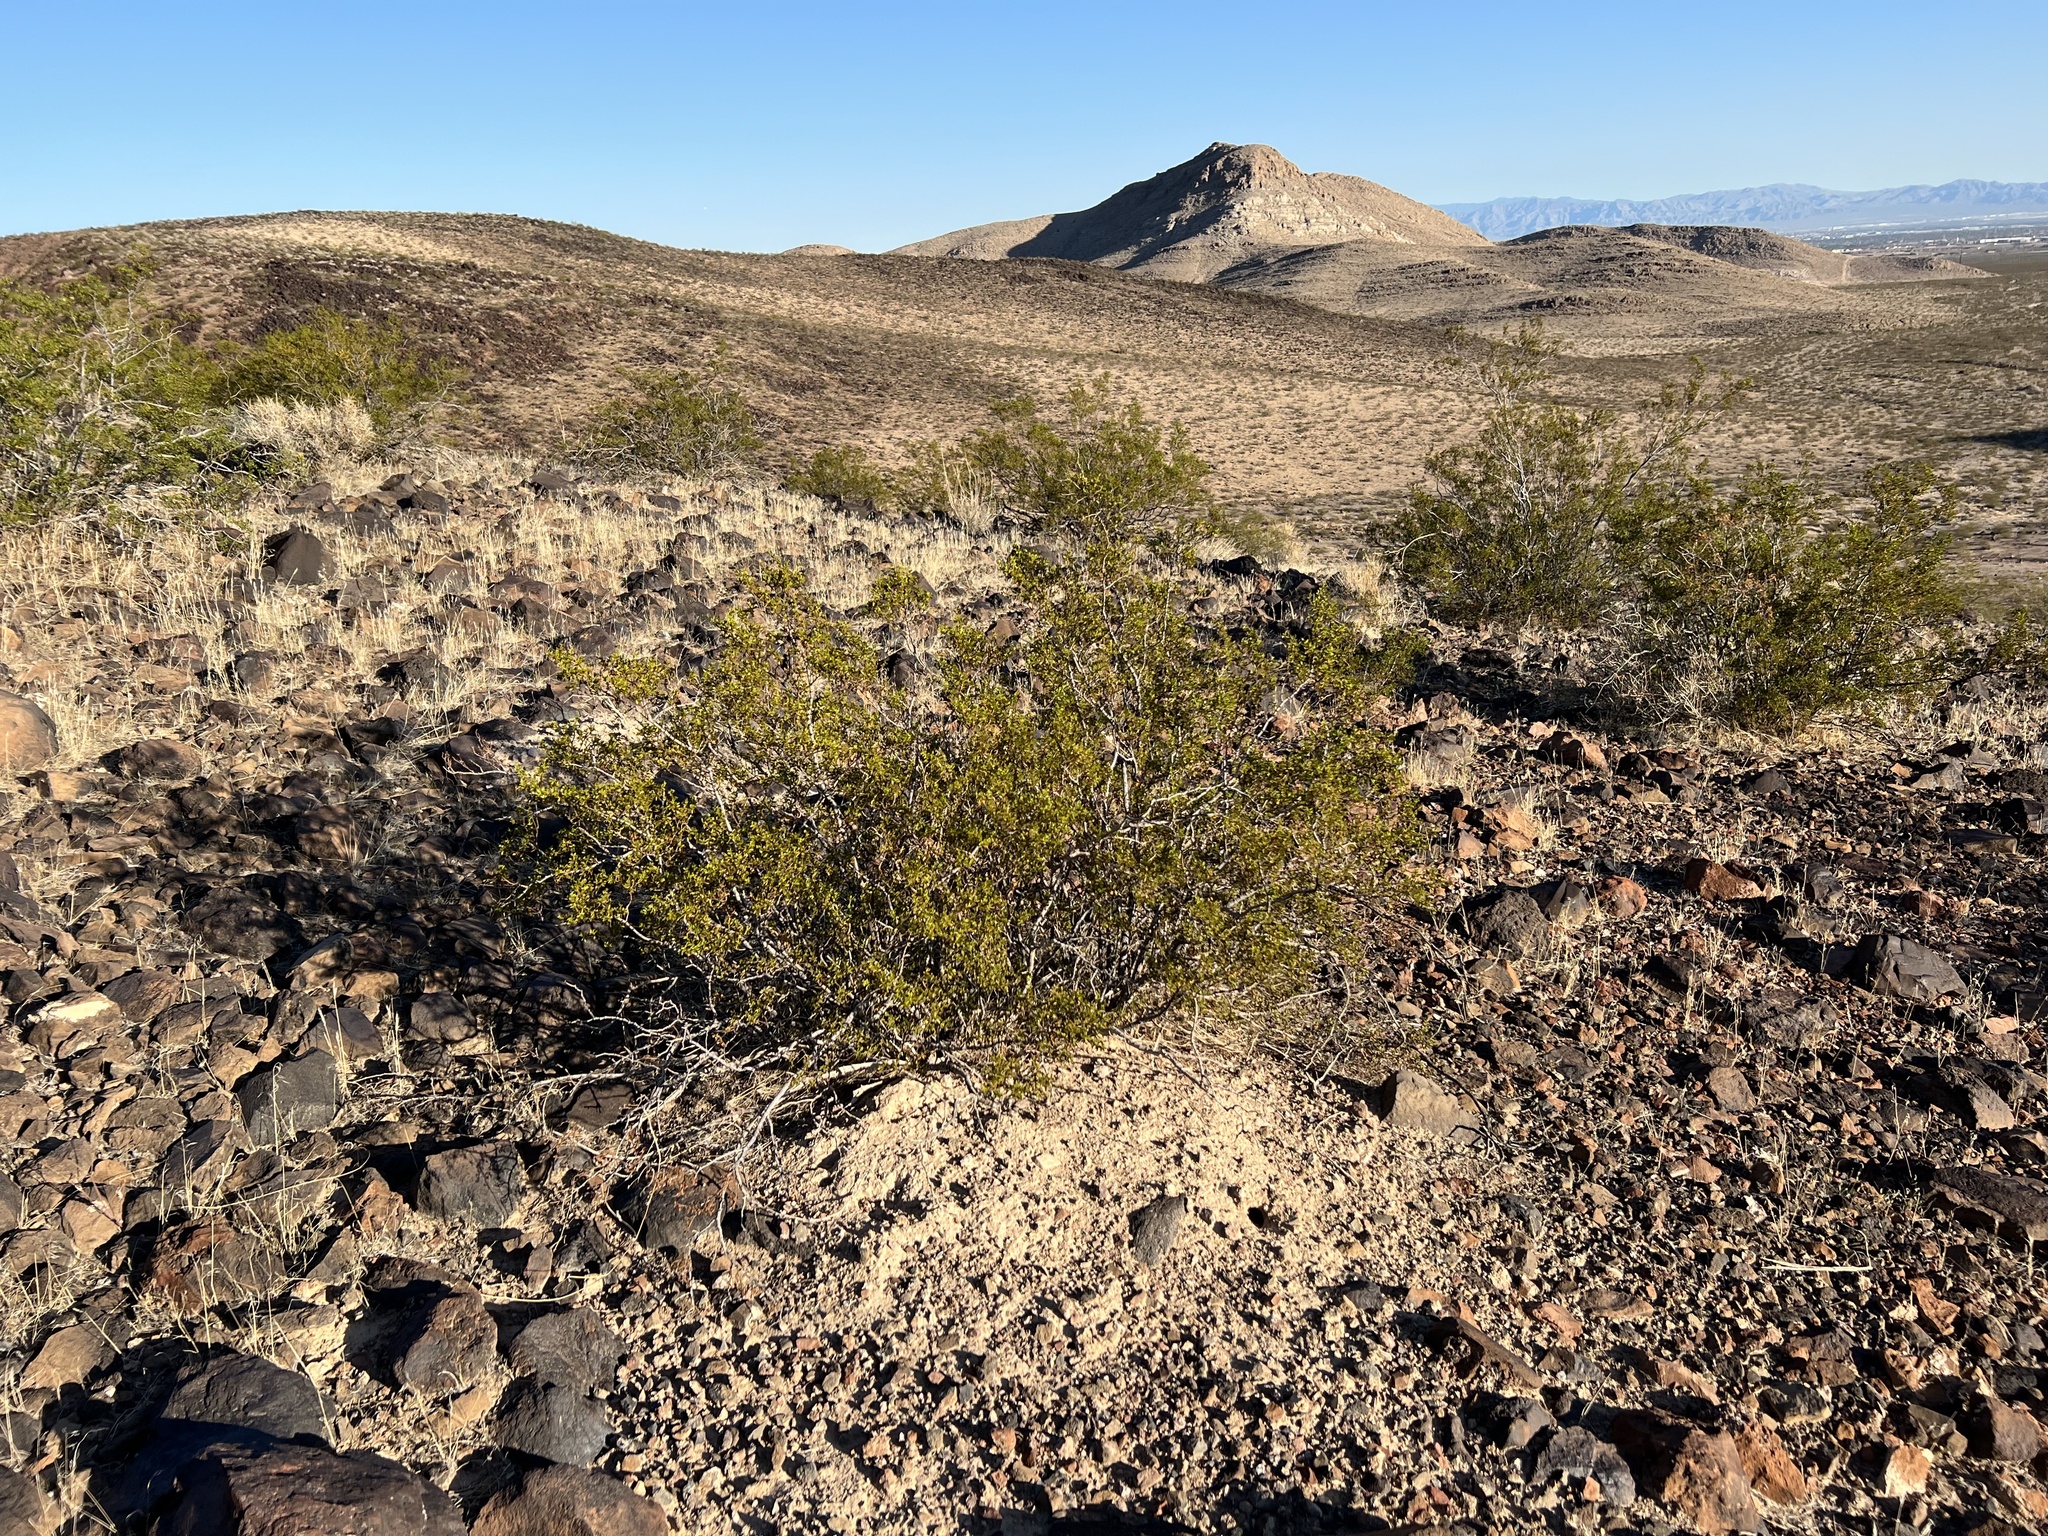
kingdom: Plantae
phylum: Tracheophyta
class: Magnoliopsida
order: Zygophyllales
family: Zygophyllaceae
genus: Larrea
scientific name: Larrea tridentata
